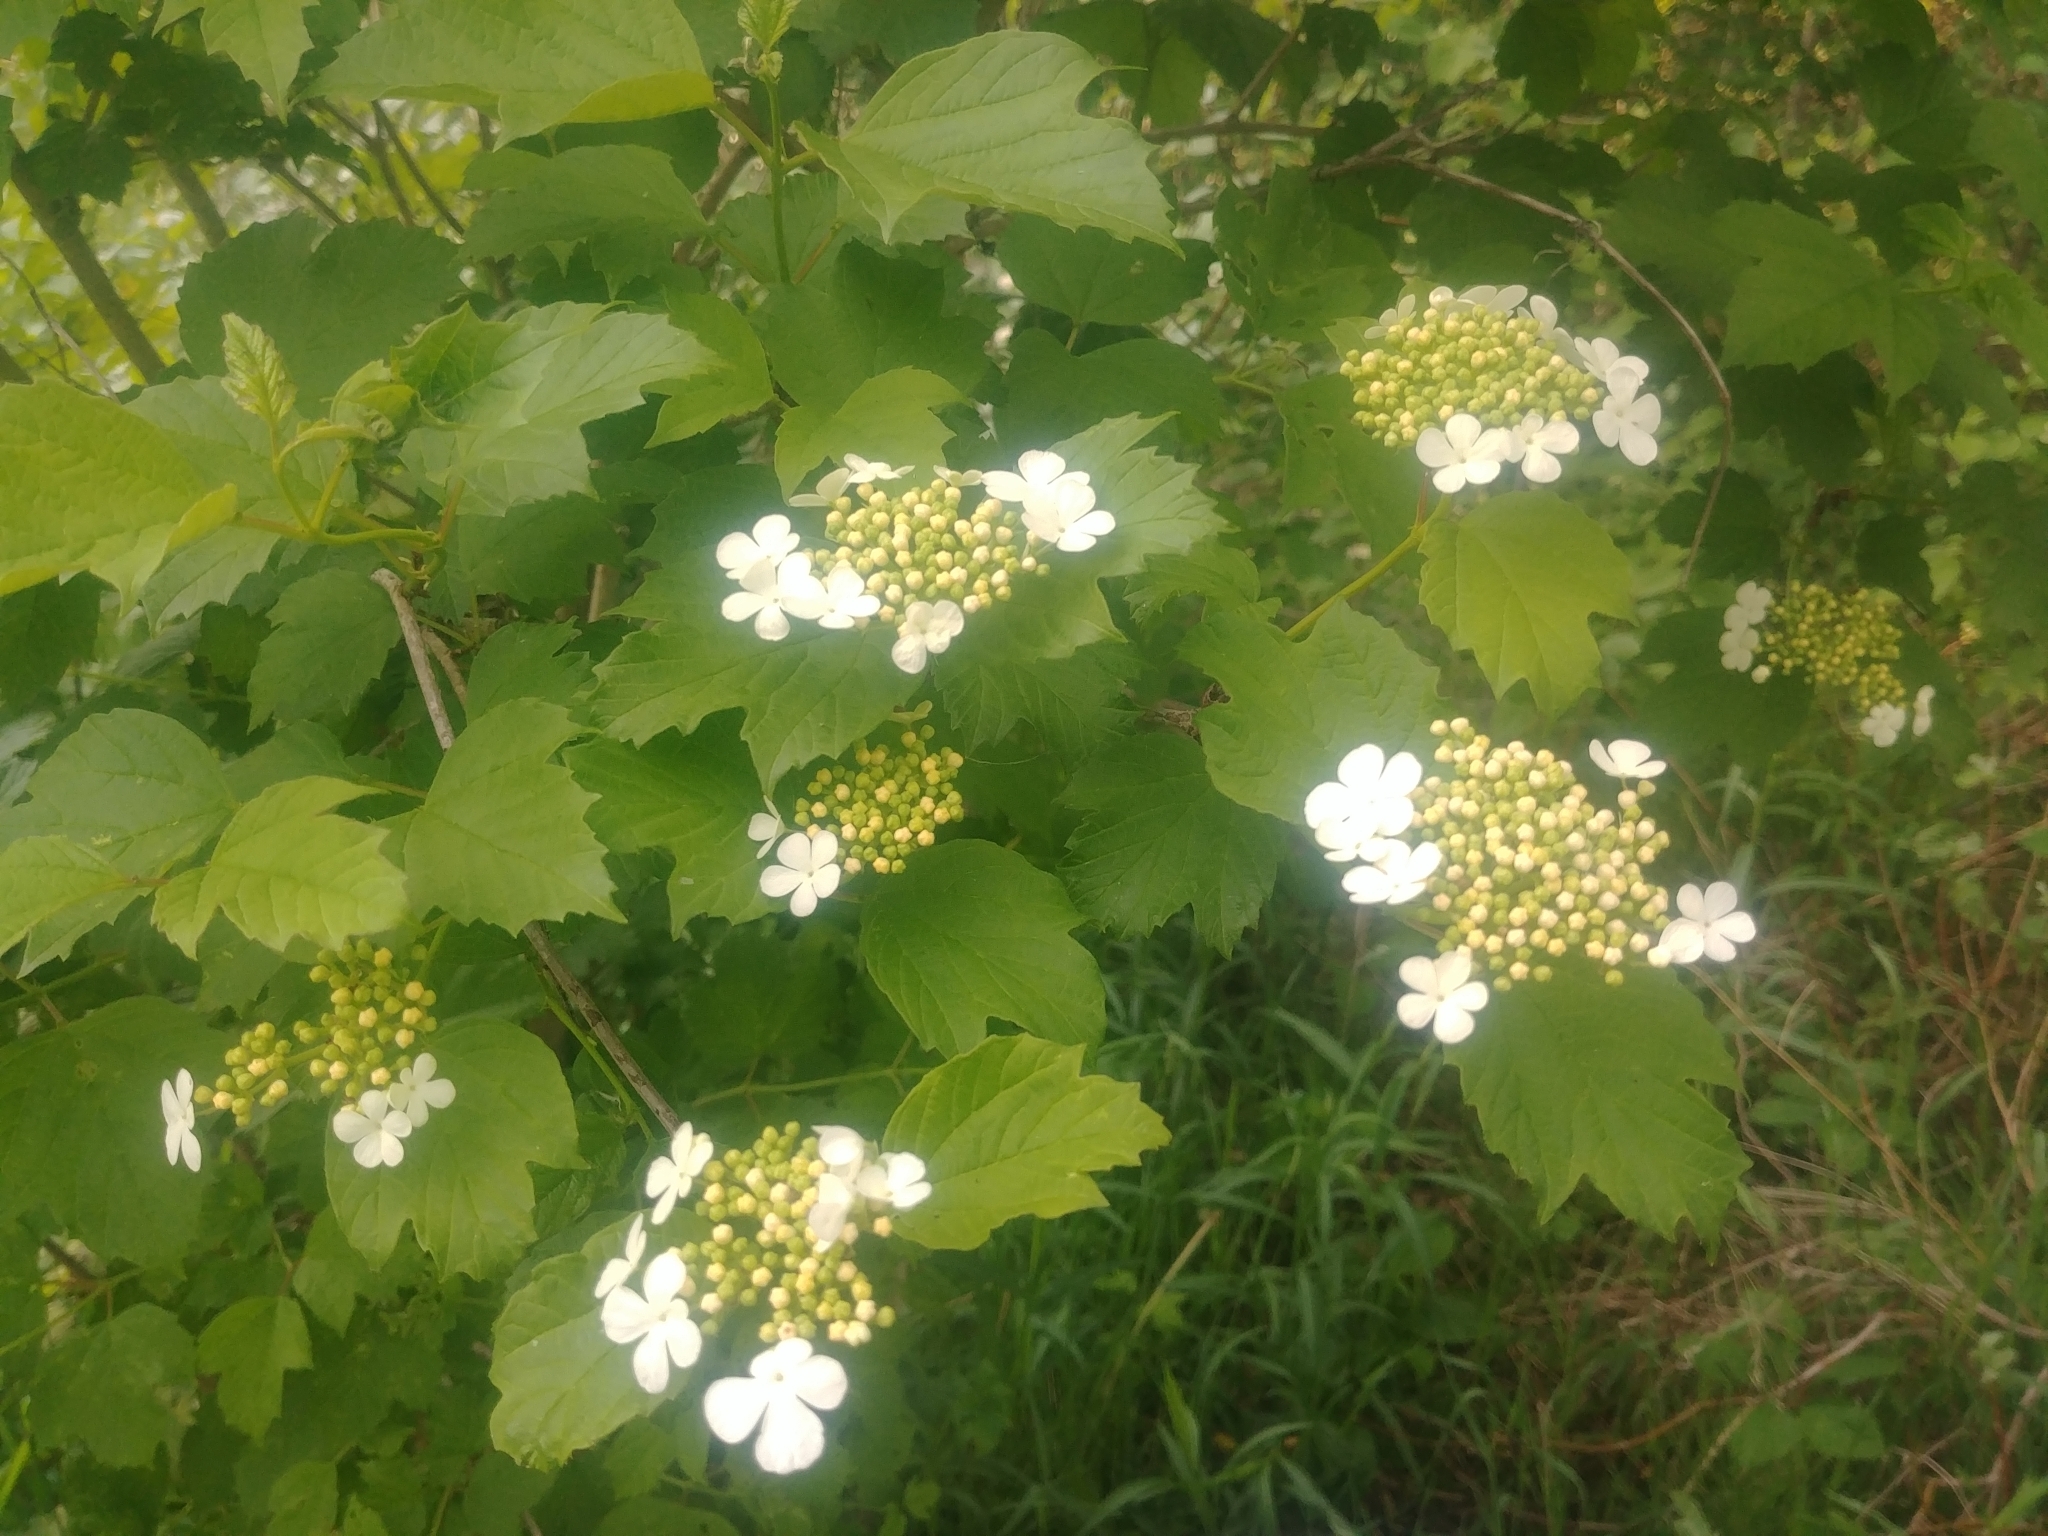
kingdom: Plantae
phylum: Tracheophyta
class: Magnoliopsida
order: Dipsacales
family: Viburnaceae
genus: Viburnum
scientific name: Viburnum opulus
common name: Guelder-rose
